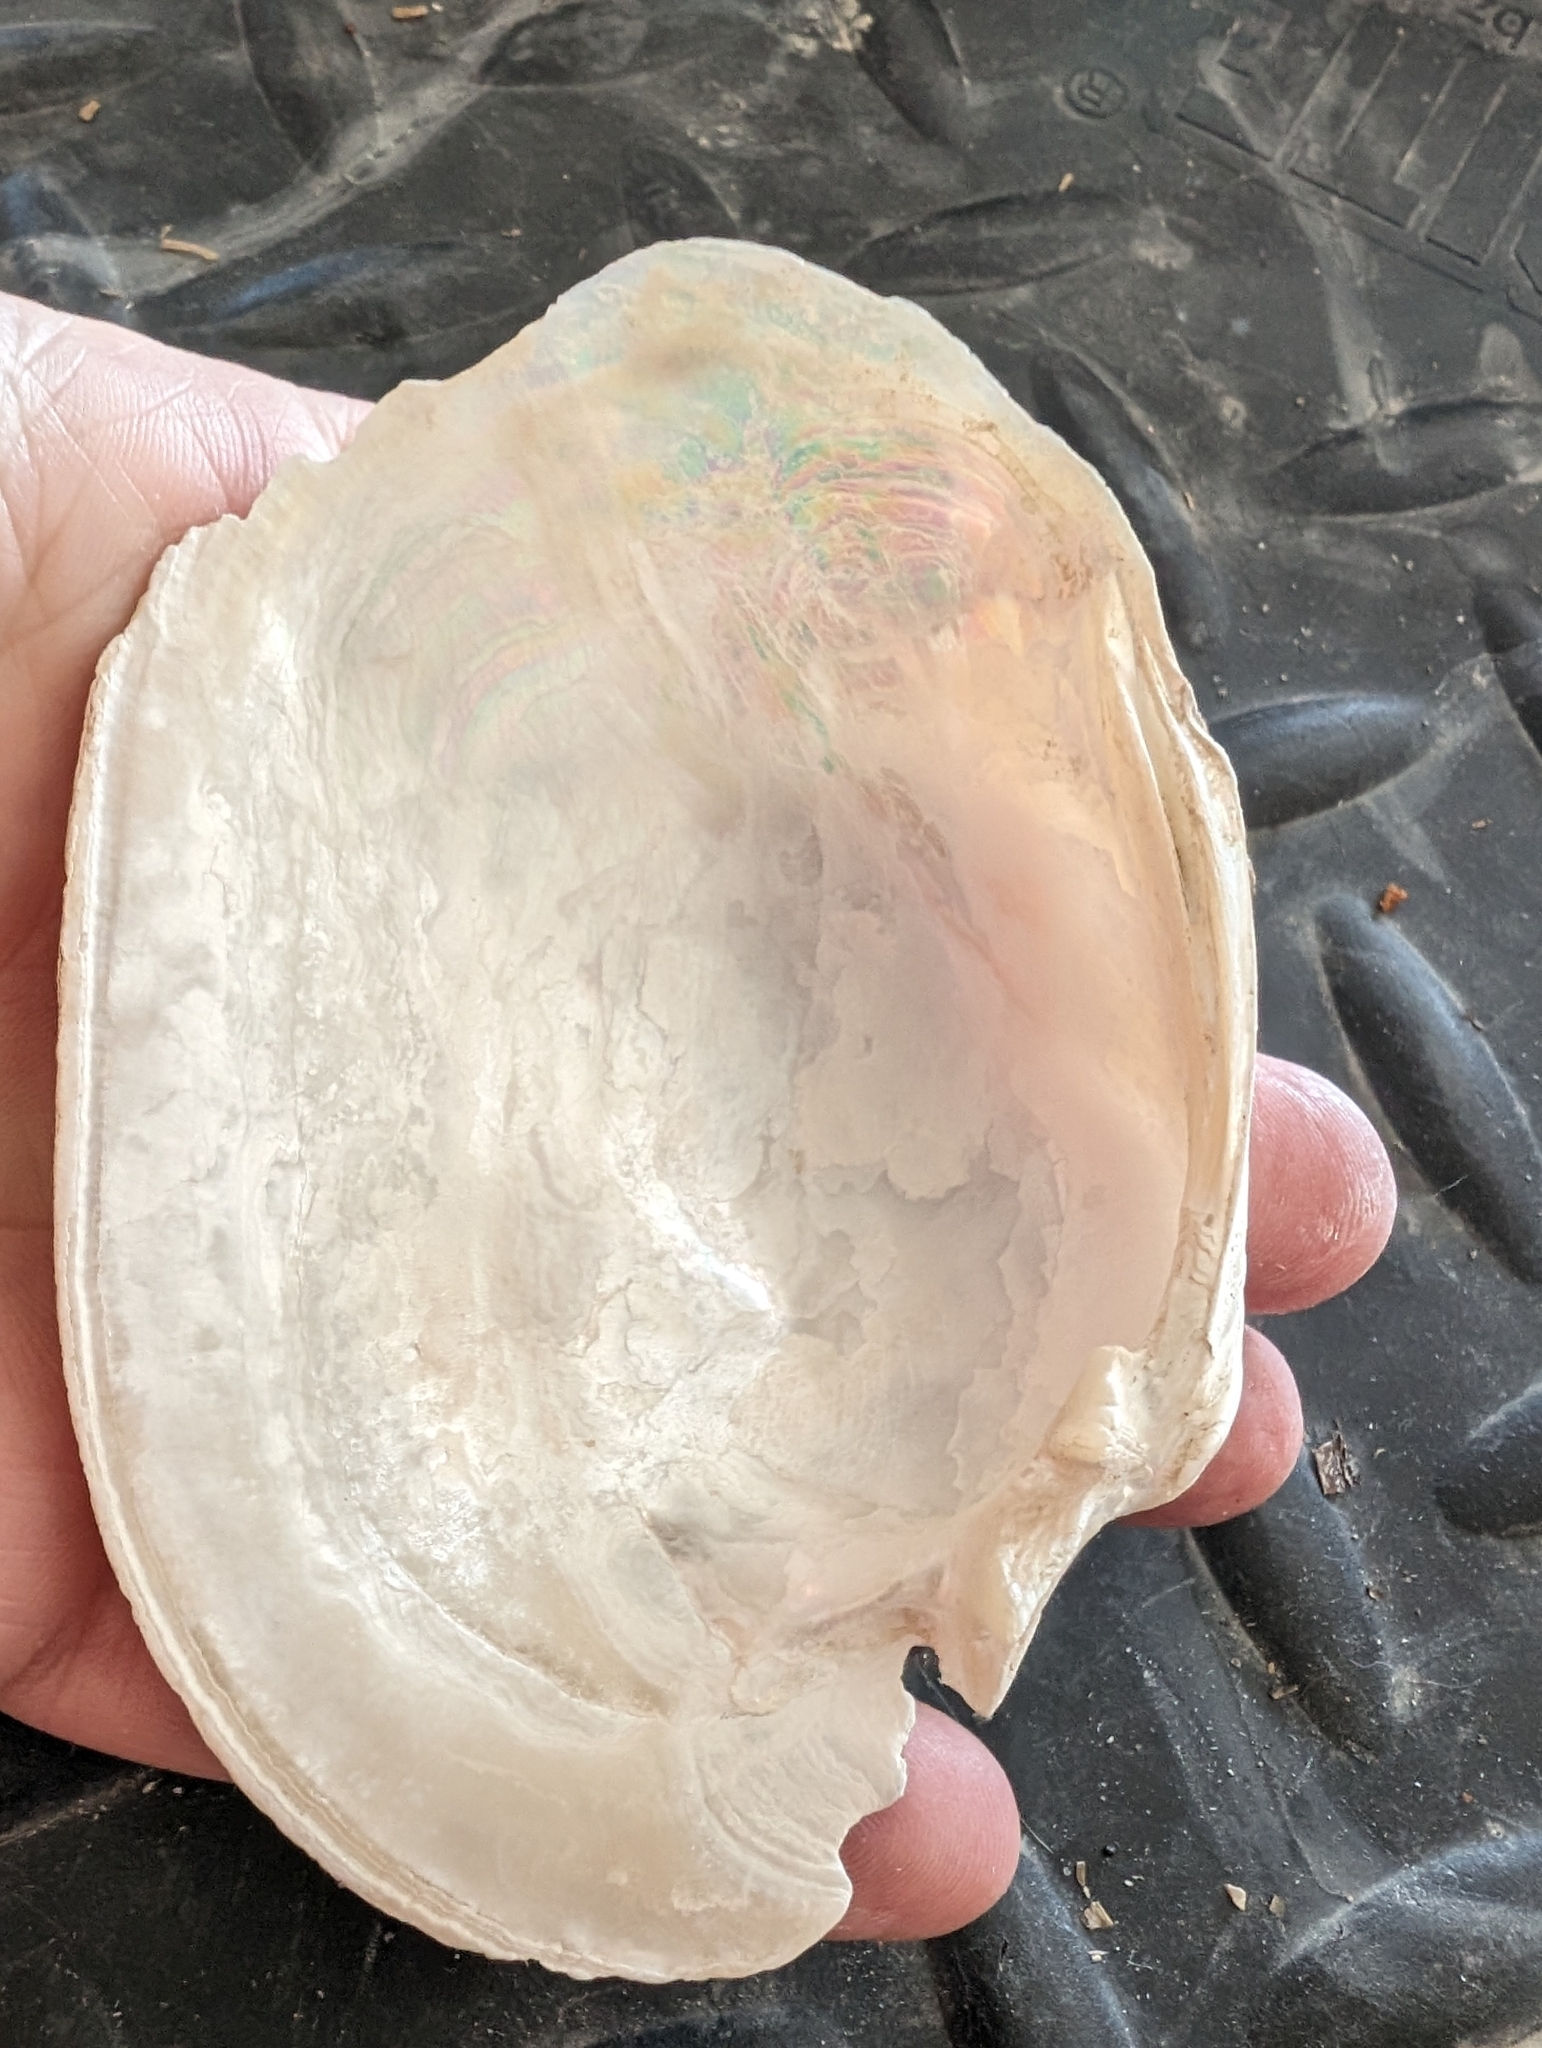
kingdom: Animalia
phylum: Mollusca
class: Bivalvia
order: Unionida
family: Unionidae
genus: Lampsilis
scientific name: Lampsilis cardium
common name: Plain pocketbook
